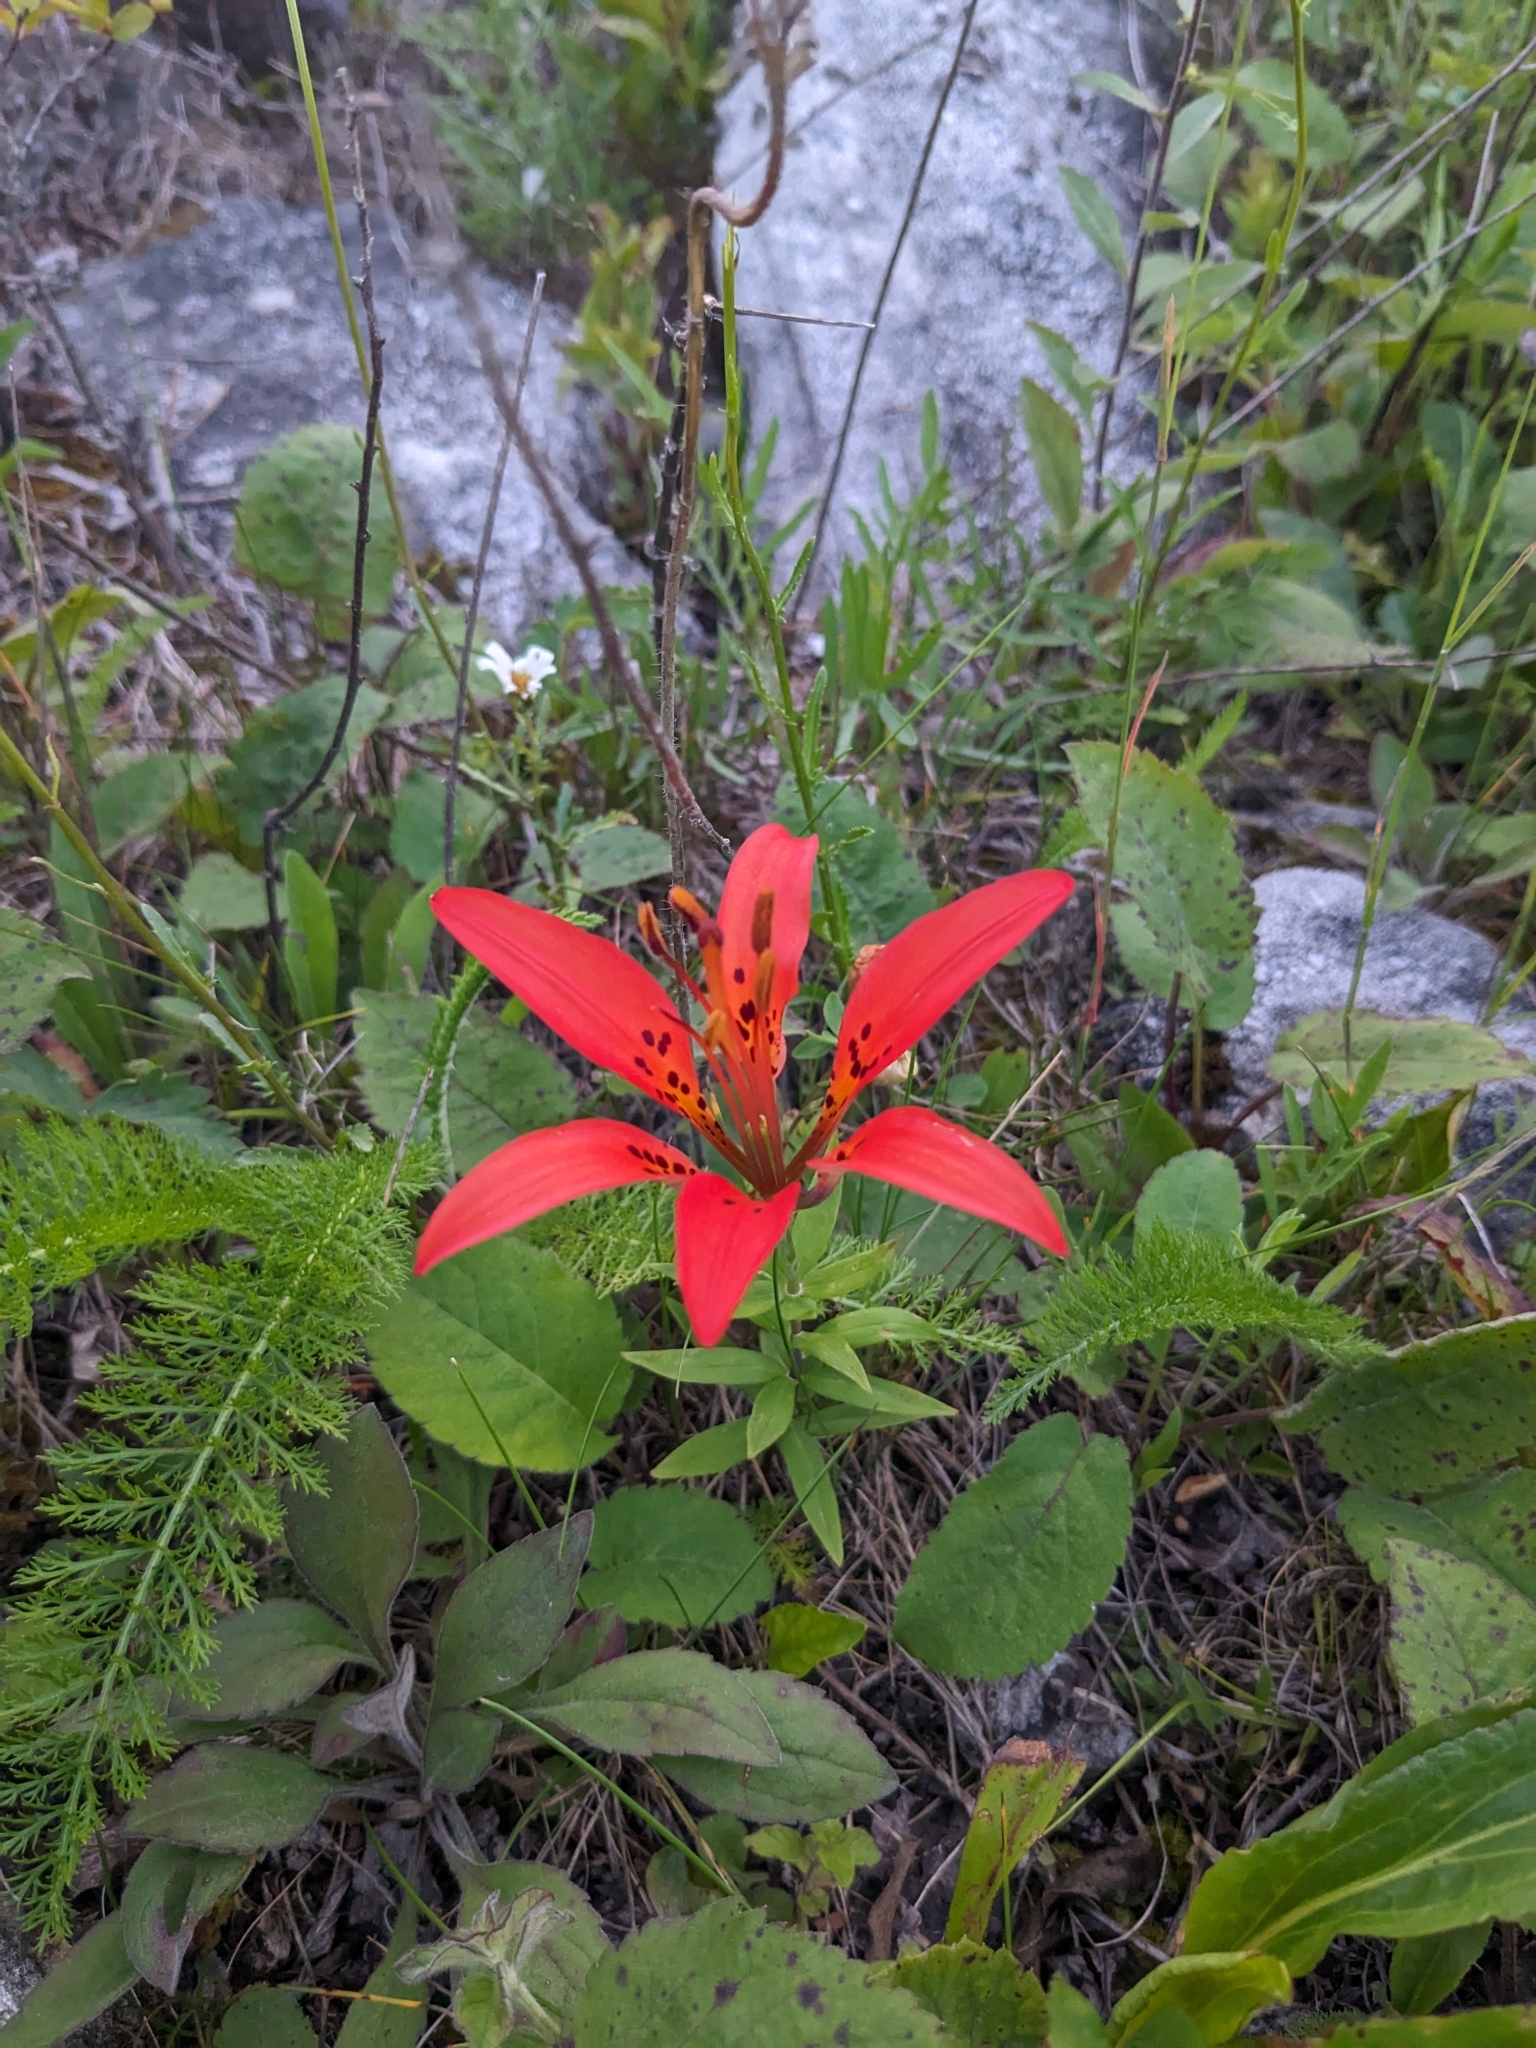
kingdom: Plantae
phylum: Tracheophyta
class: Liliopsida
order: Liliales
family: Liliaceae
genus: Lilium
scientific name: Lilium philadelphicum
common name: Red lily
